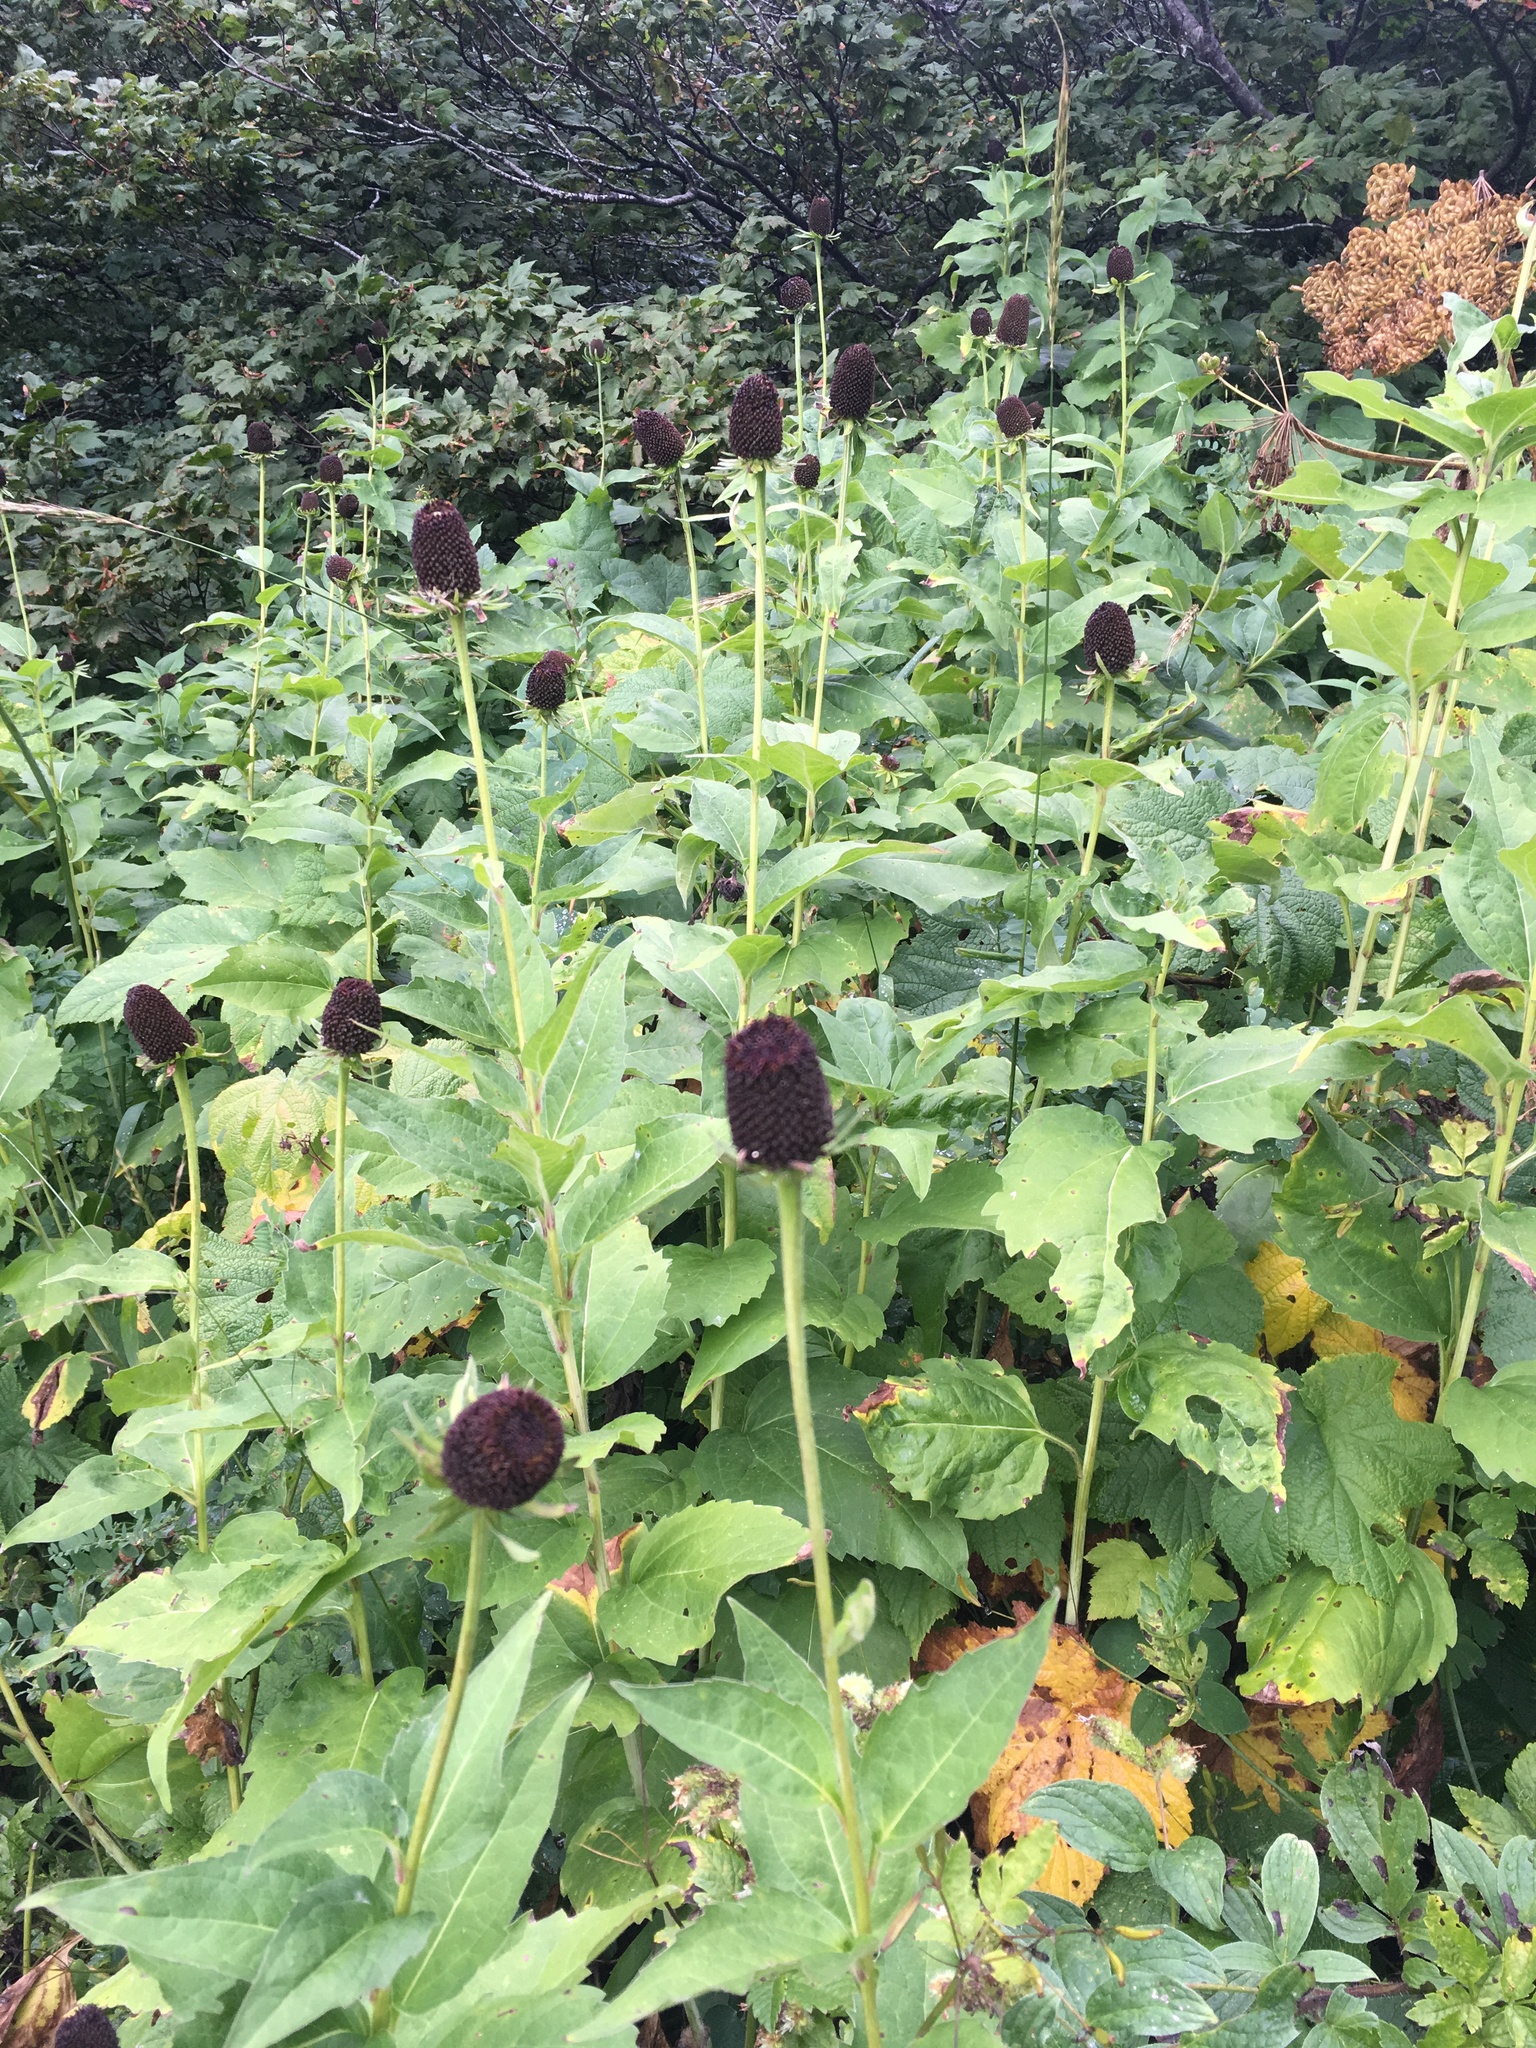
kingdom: Plantae
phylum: Tracheophyta
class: Magnoliopsida
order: Asterales
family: Asteraceae
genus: Rudbeckia
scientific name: Rudbeckia occidentalis
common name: Western coneflower
